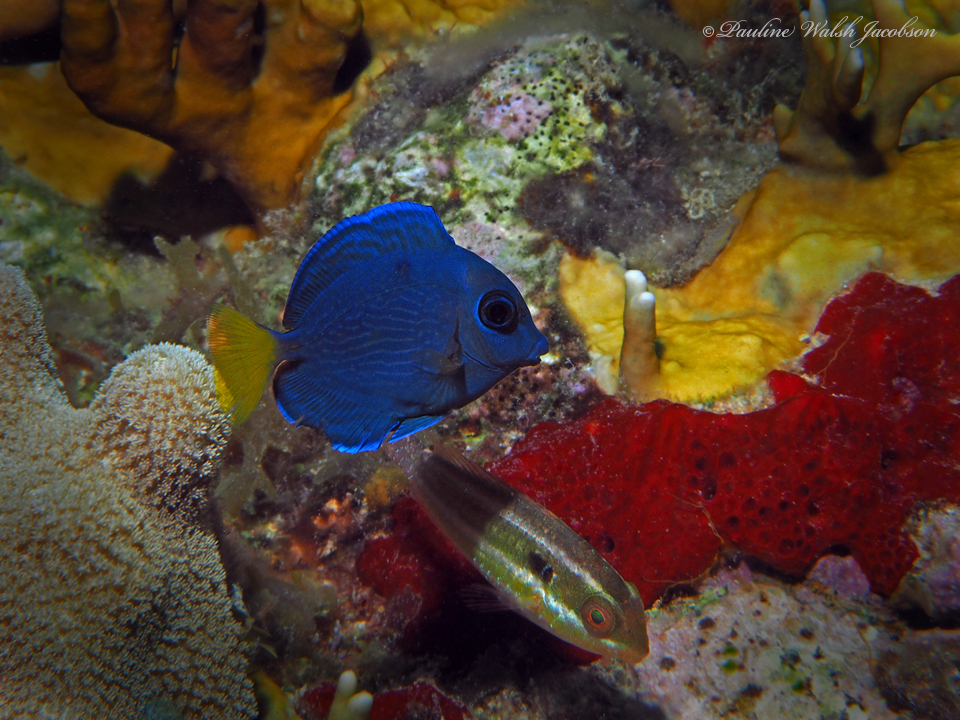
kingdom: Animalia
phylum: Chordata
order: Perciformes
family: Acanthuridae
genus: Acanthurus
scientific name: Acanthurus coeruleus
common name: Blue tang
